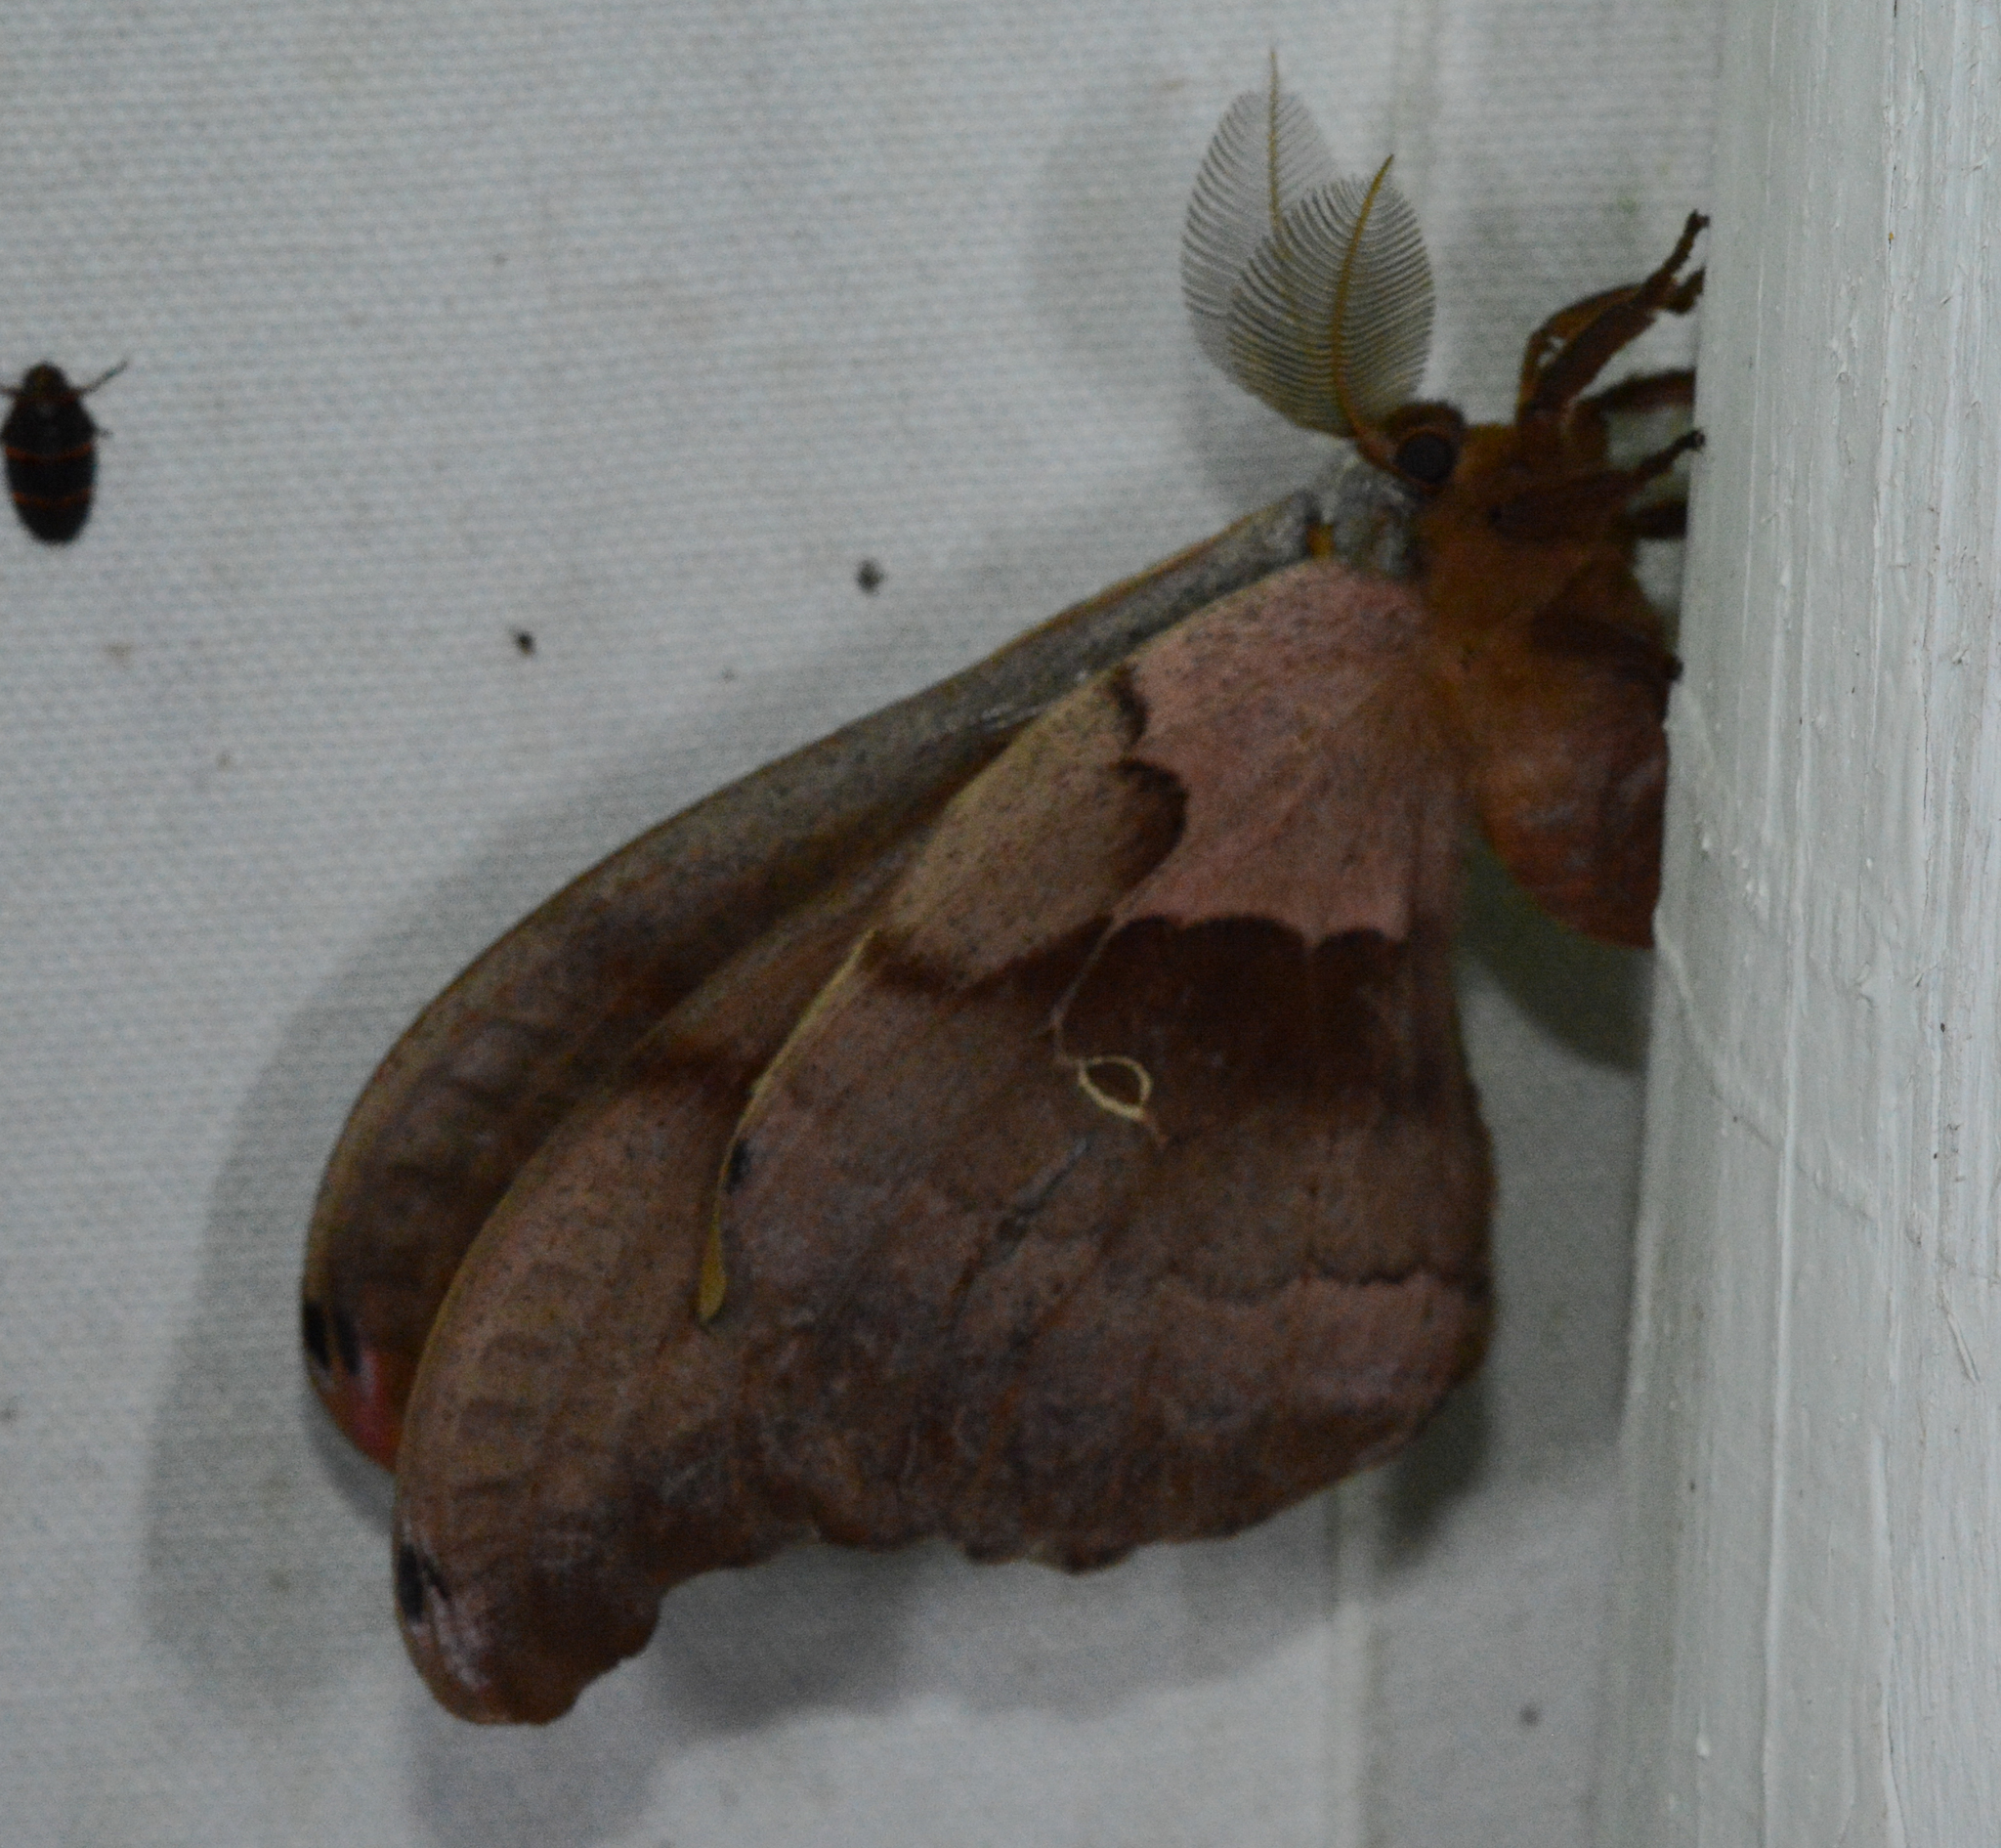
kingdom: Animalia
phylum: Arthropoda
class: Insecta
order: Lepidoptera
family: Saturniidae
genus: Antheraea
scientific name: Antheraea polyphemus
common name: Polyphemus moth
